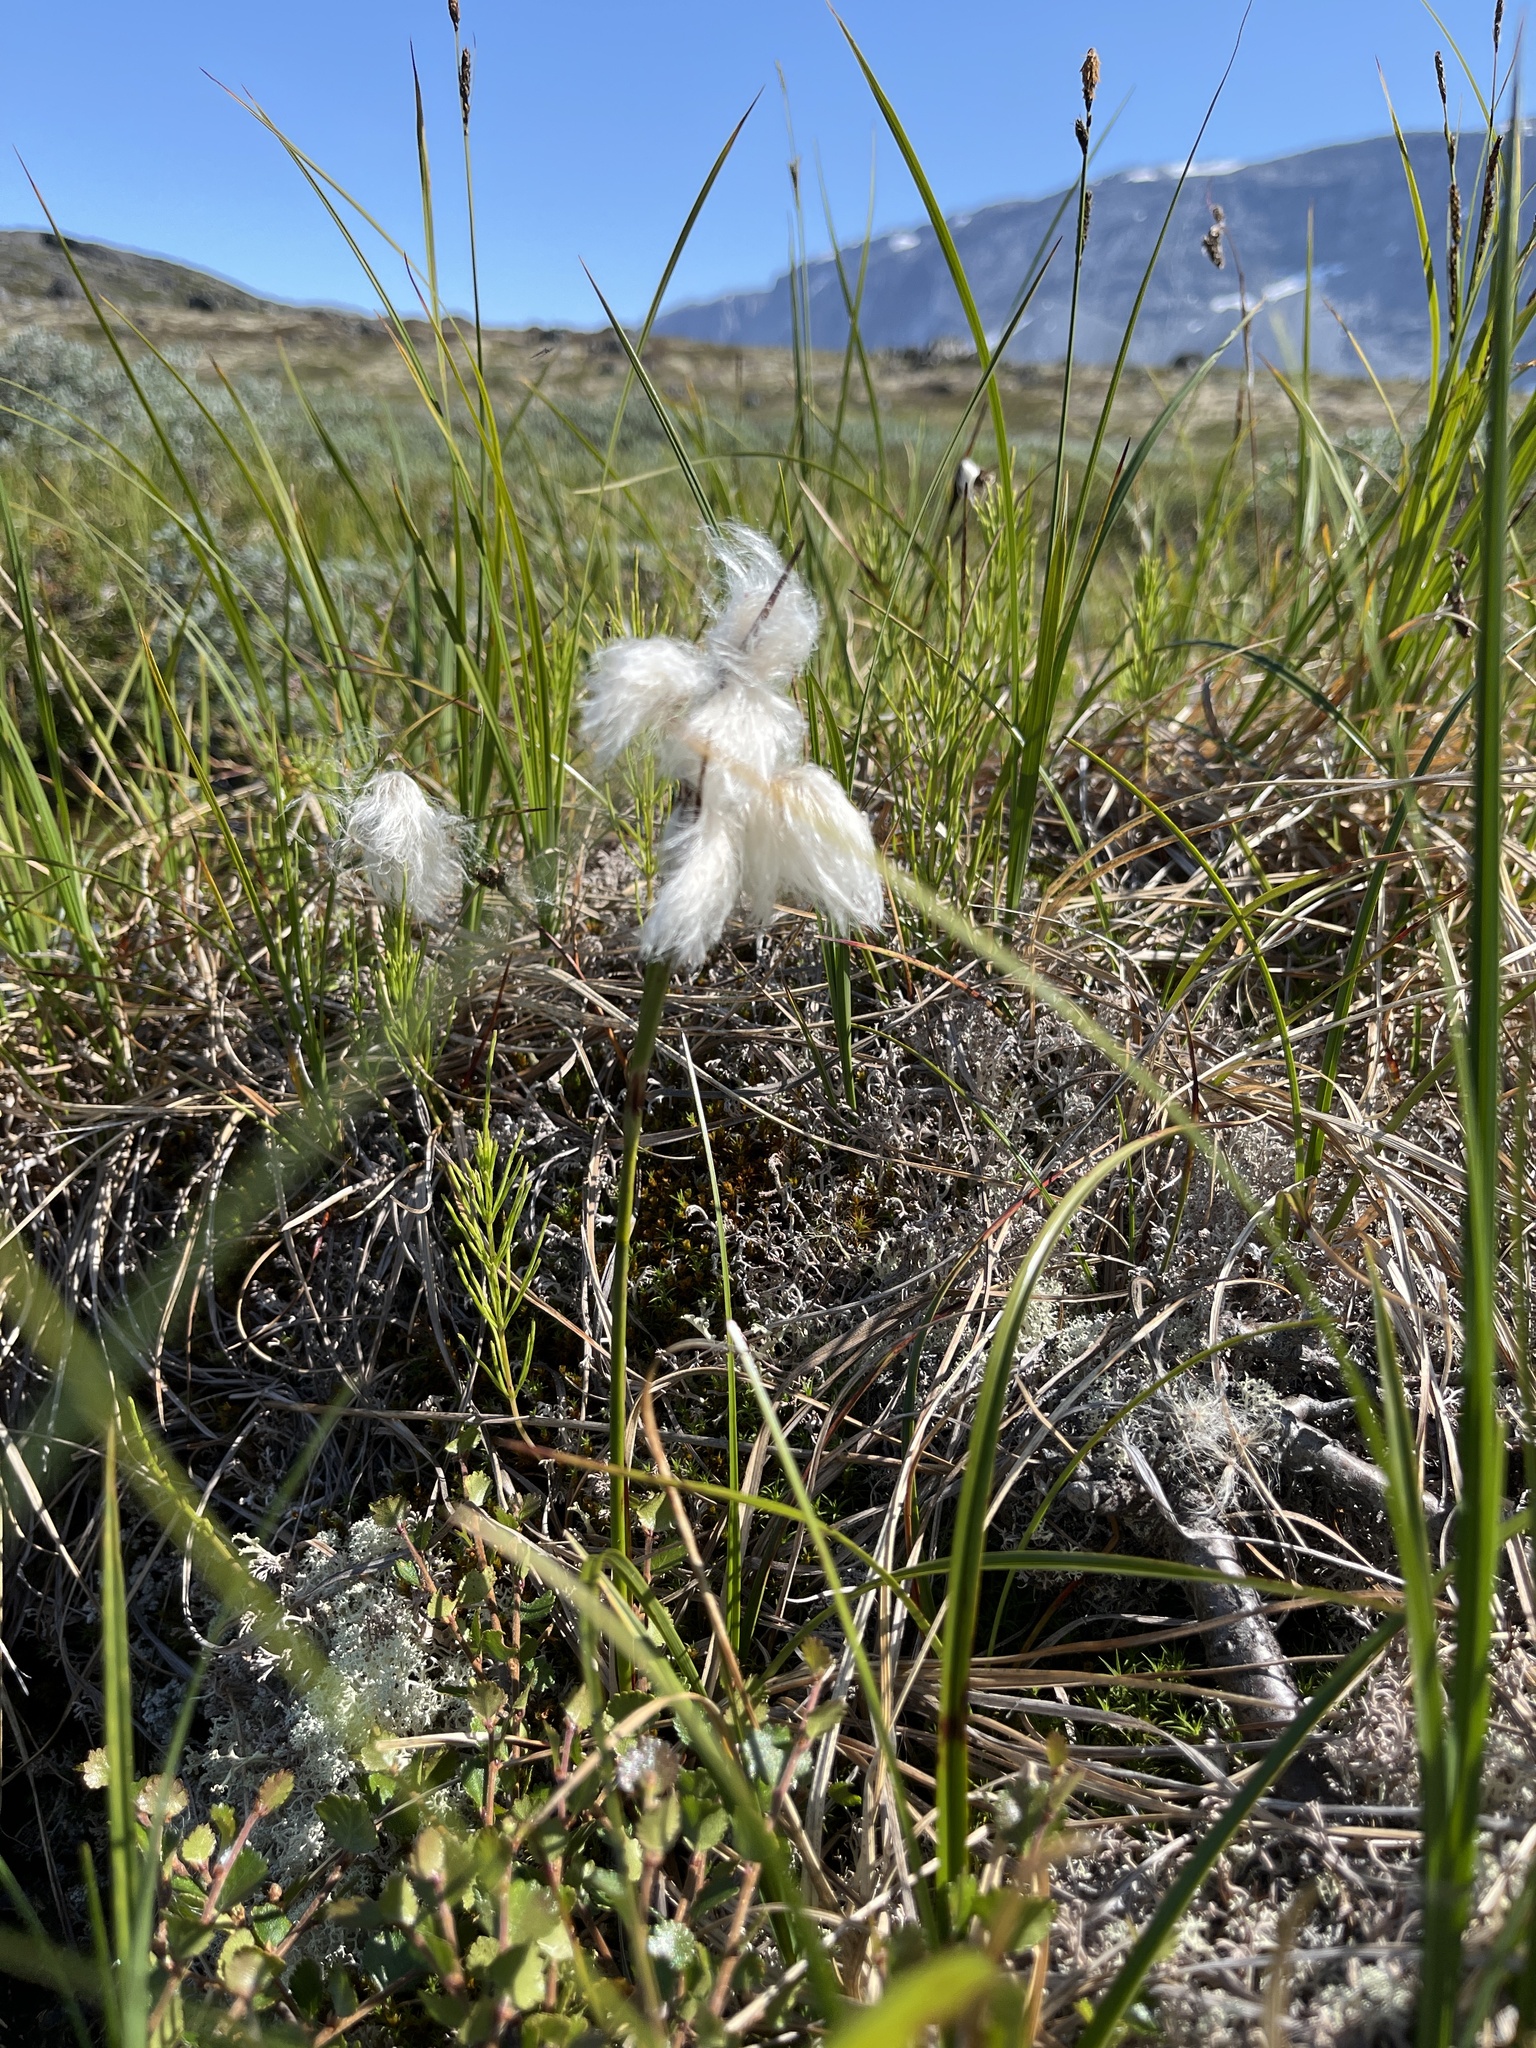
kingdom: Plantae
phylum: Tracheophyta
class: Liliopsida
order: Poales
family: Cyperaceae
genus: Eriophorum
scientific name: Eriophorum angustifolium
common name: Common cottongrass
